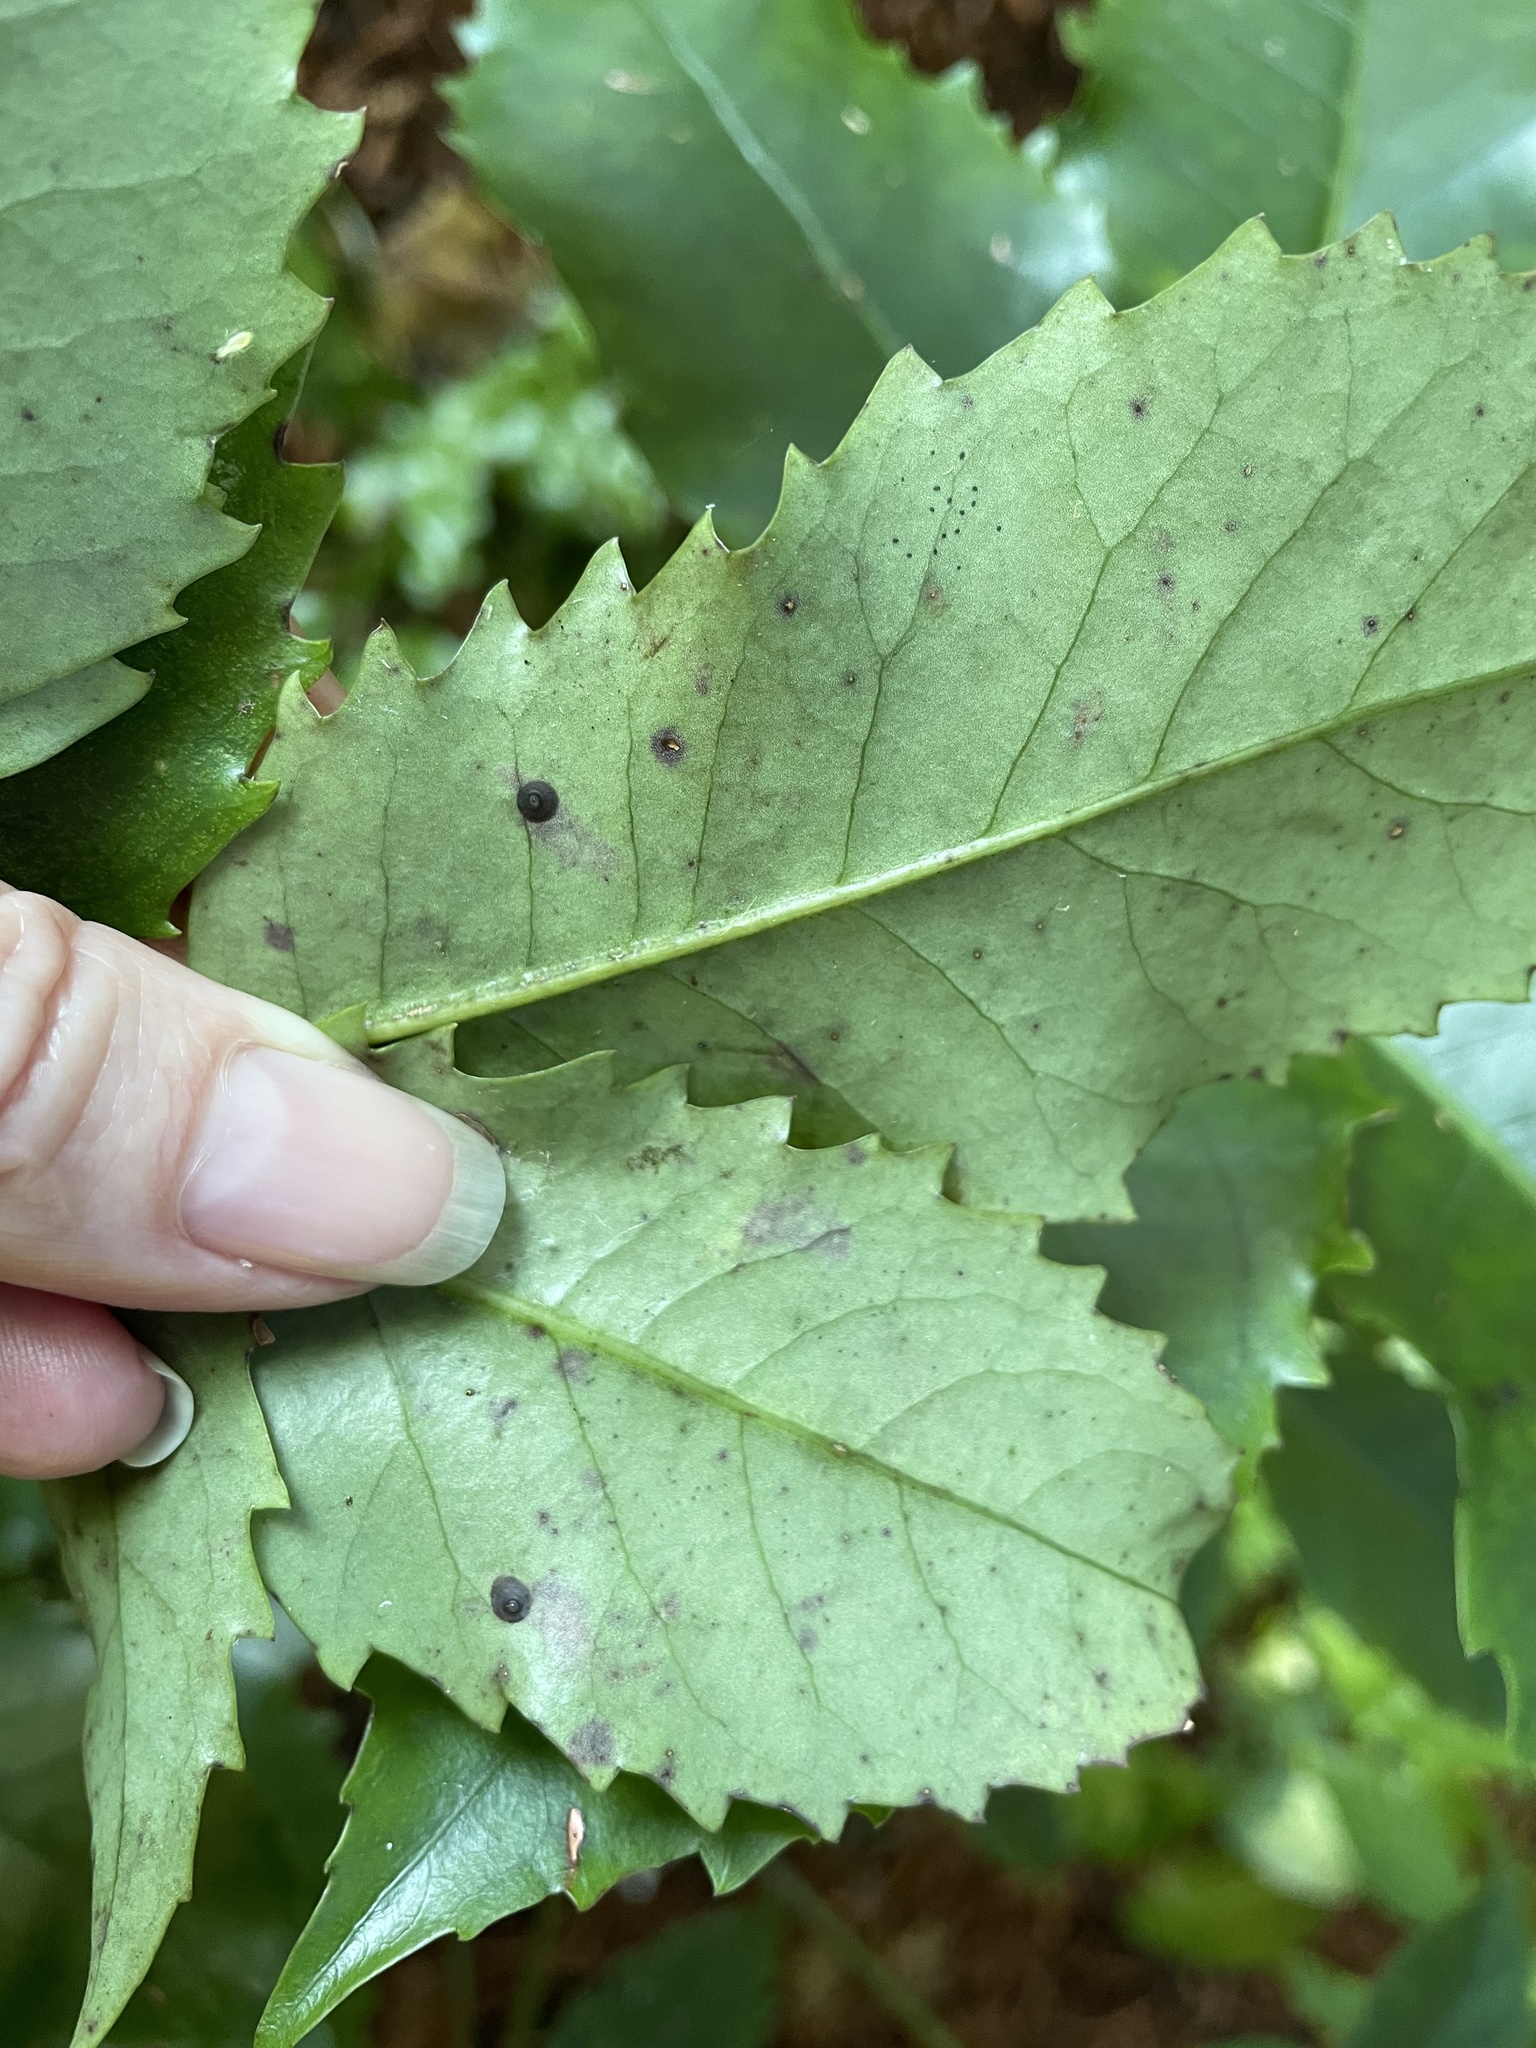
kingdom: Animalia
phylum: Arthropoda
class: Insecta
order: Hemiptera
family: Diaspididae
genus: Lindingaspis
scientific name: Lindingaspis rossi
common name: Araucaria black scale
